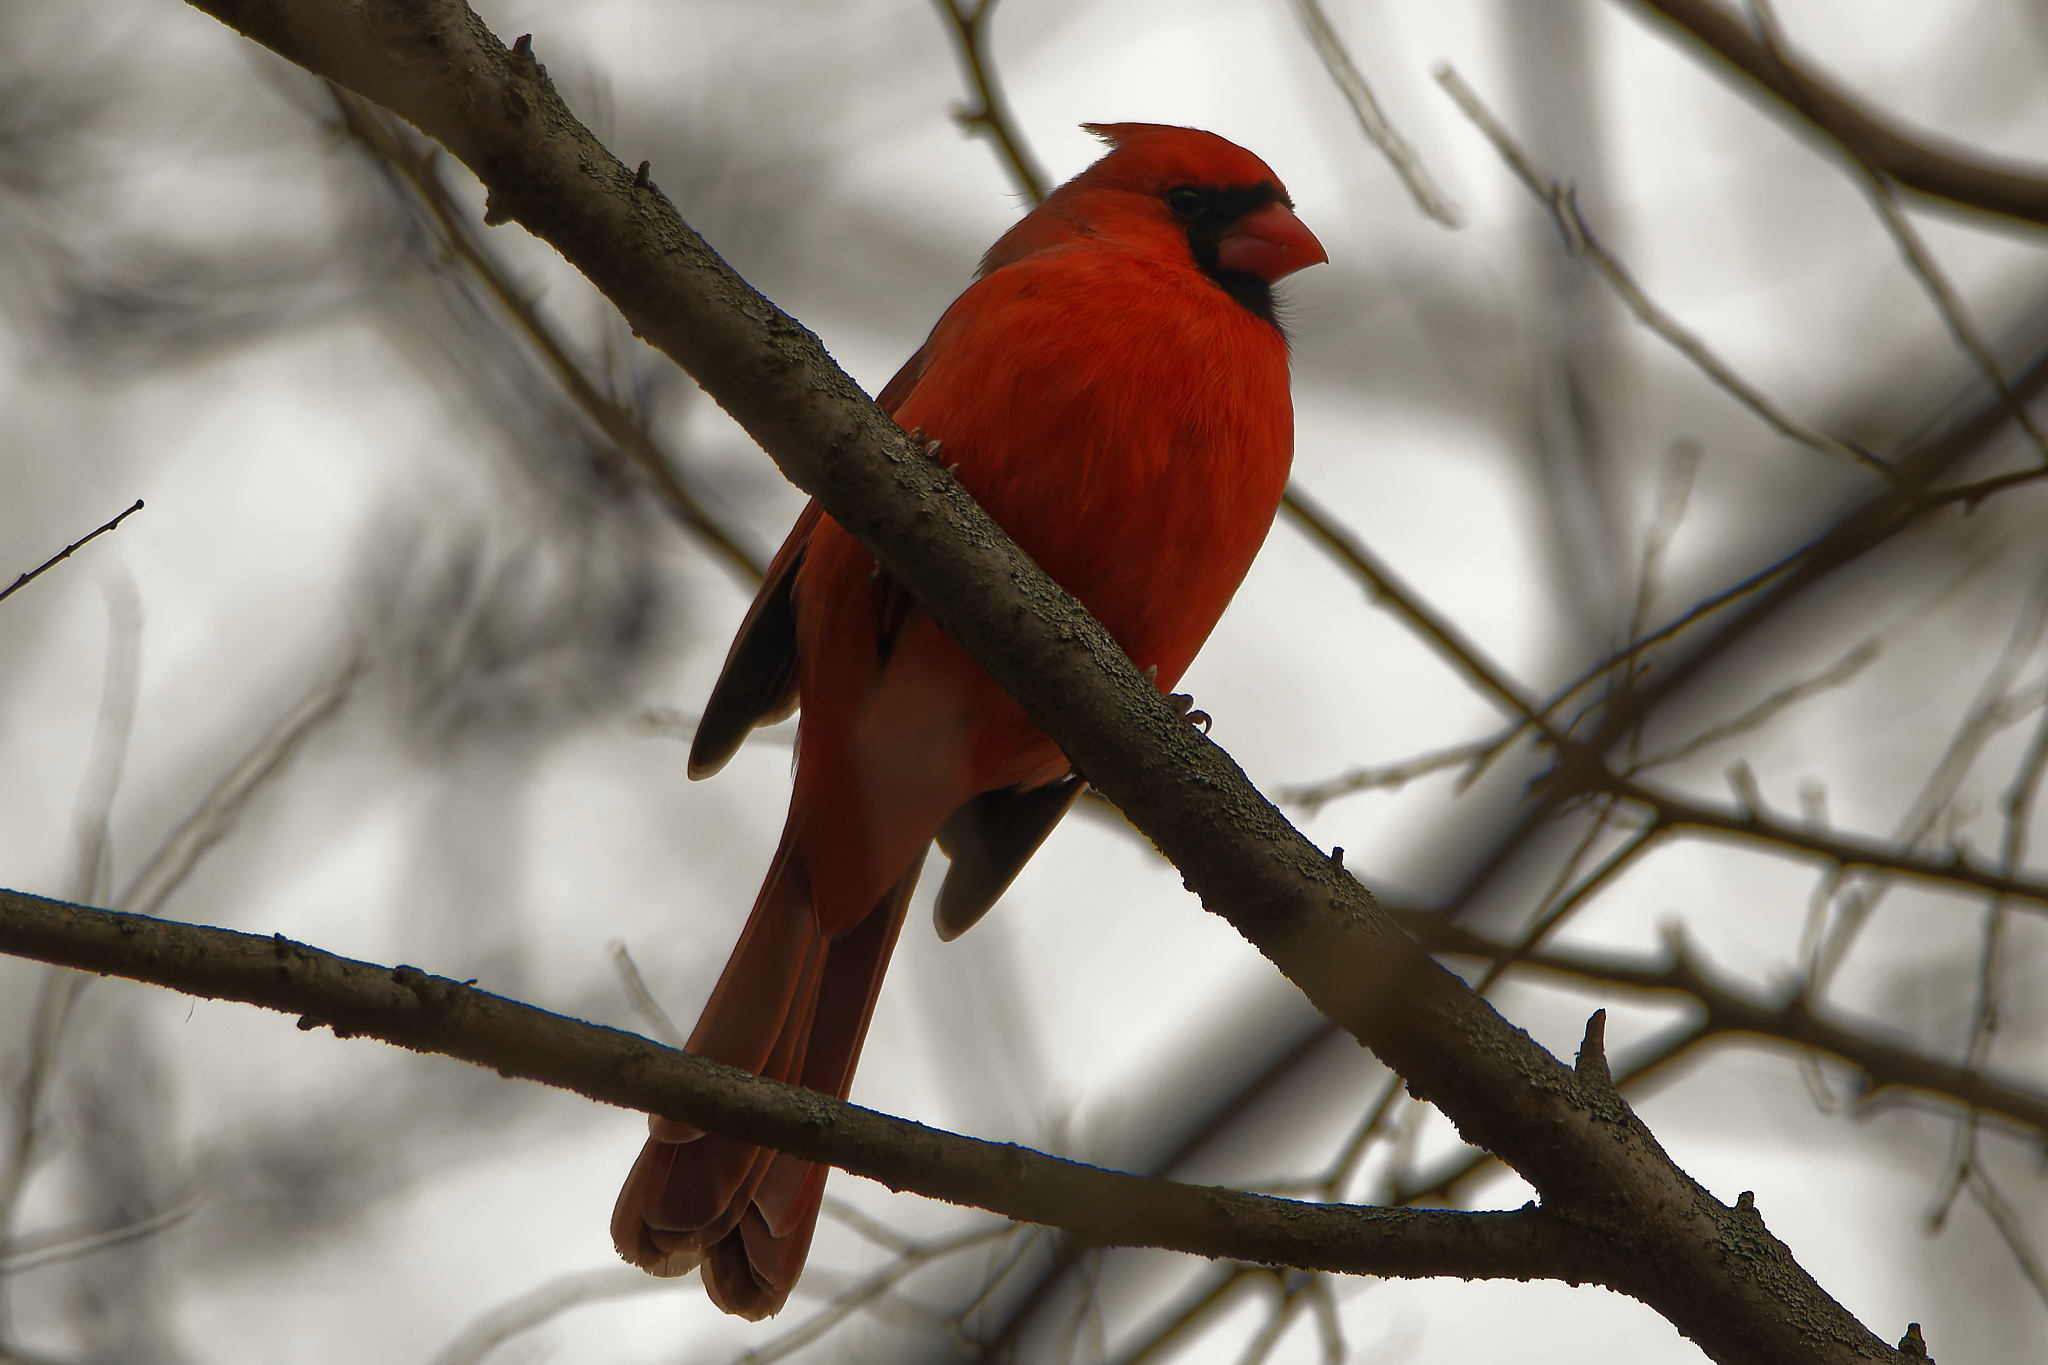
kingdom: Animalia
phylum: Chordata
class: Aves
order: Passeriformes
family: Cardinalidae
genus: Cardinalis
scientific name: Cardinalis cardinalis
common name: Northern cardinal
